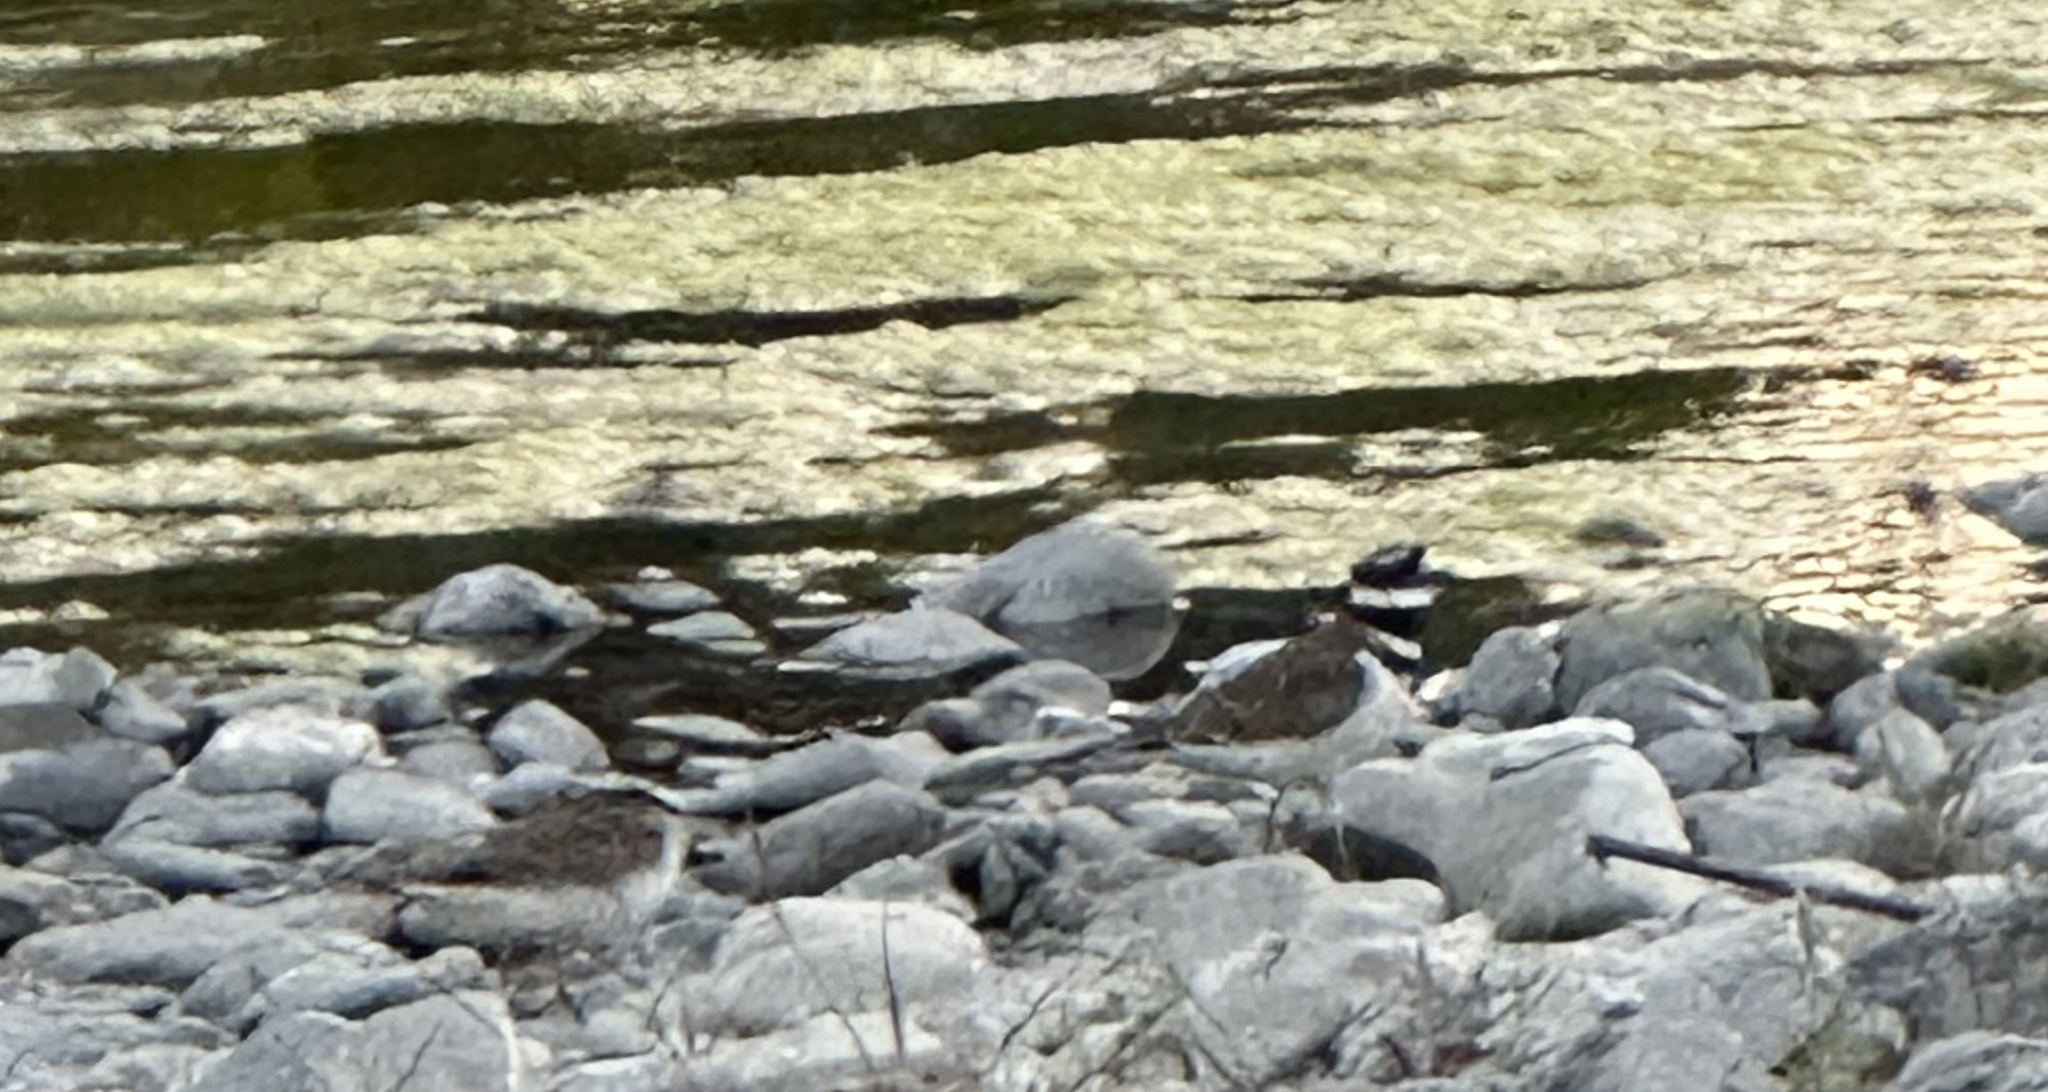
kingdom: Animalia
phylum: Chordata
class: Aves
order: Charadriiformes
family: Charadriidae
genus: Charadrius
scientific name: Charadrius vociferus
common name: Killdeer
